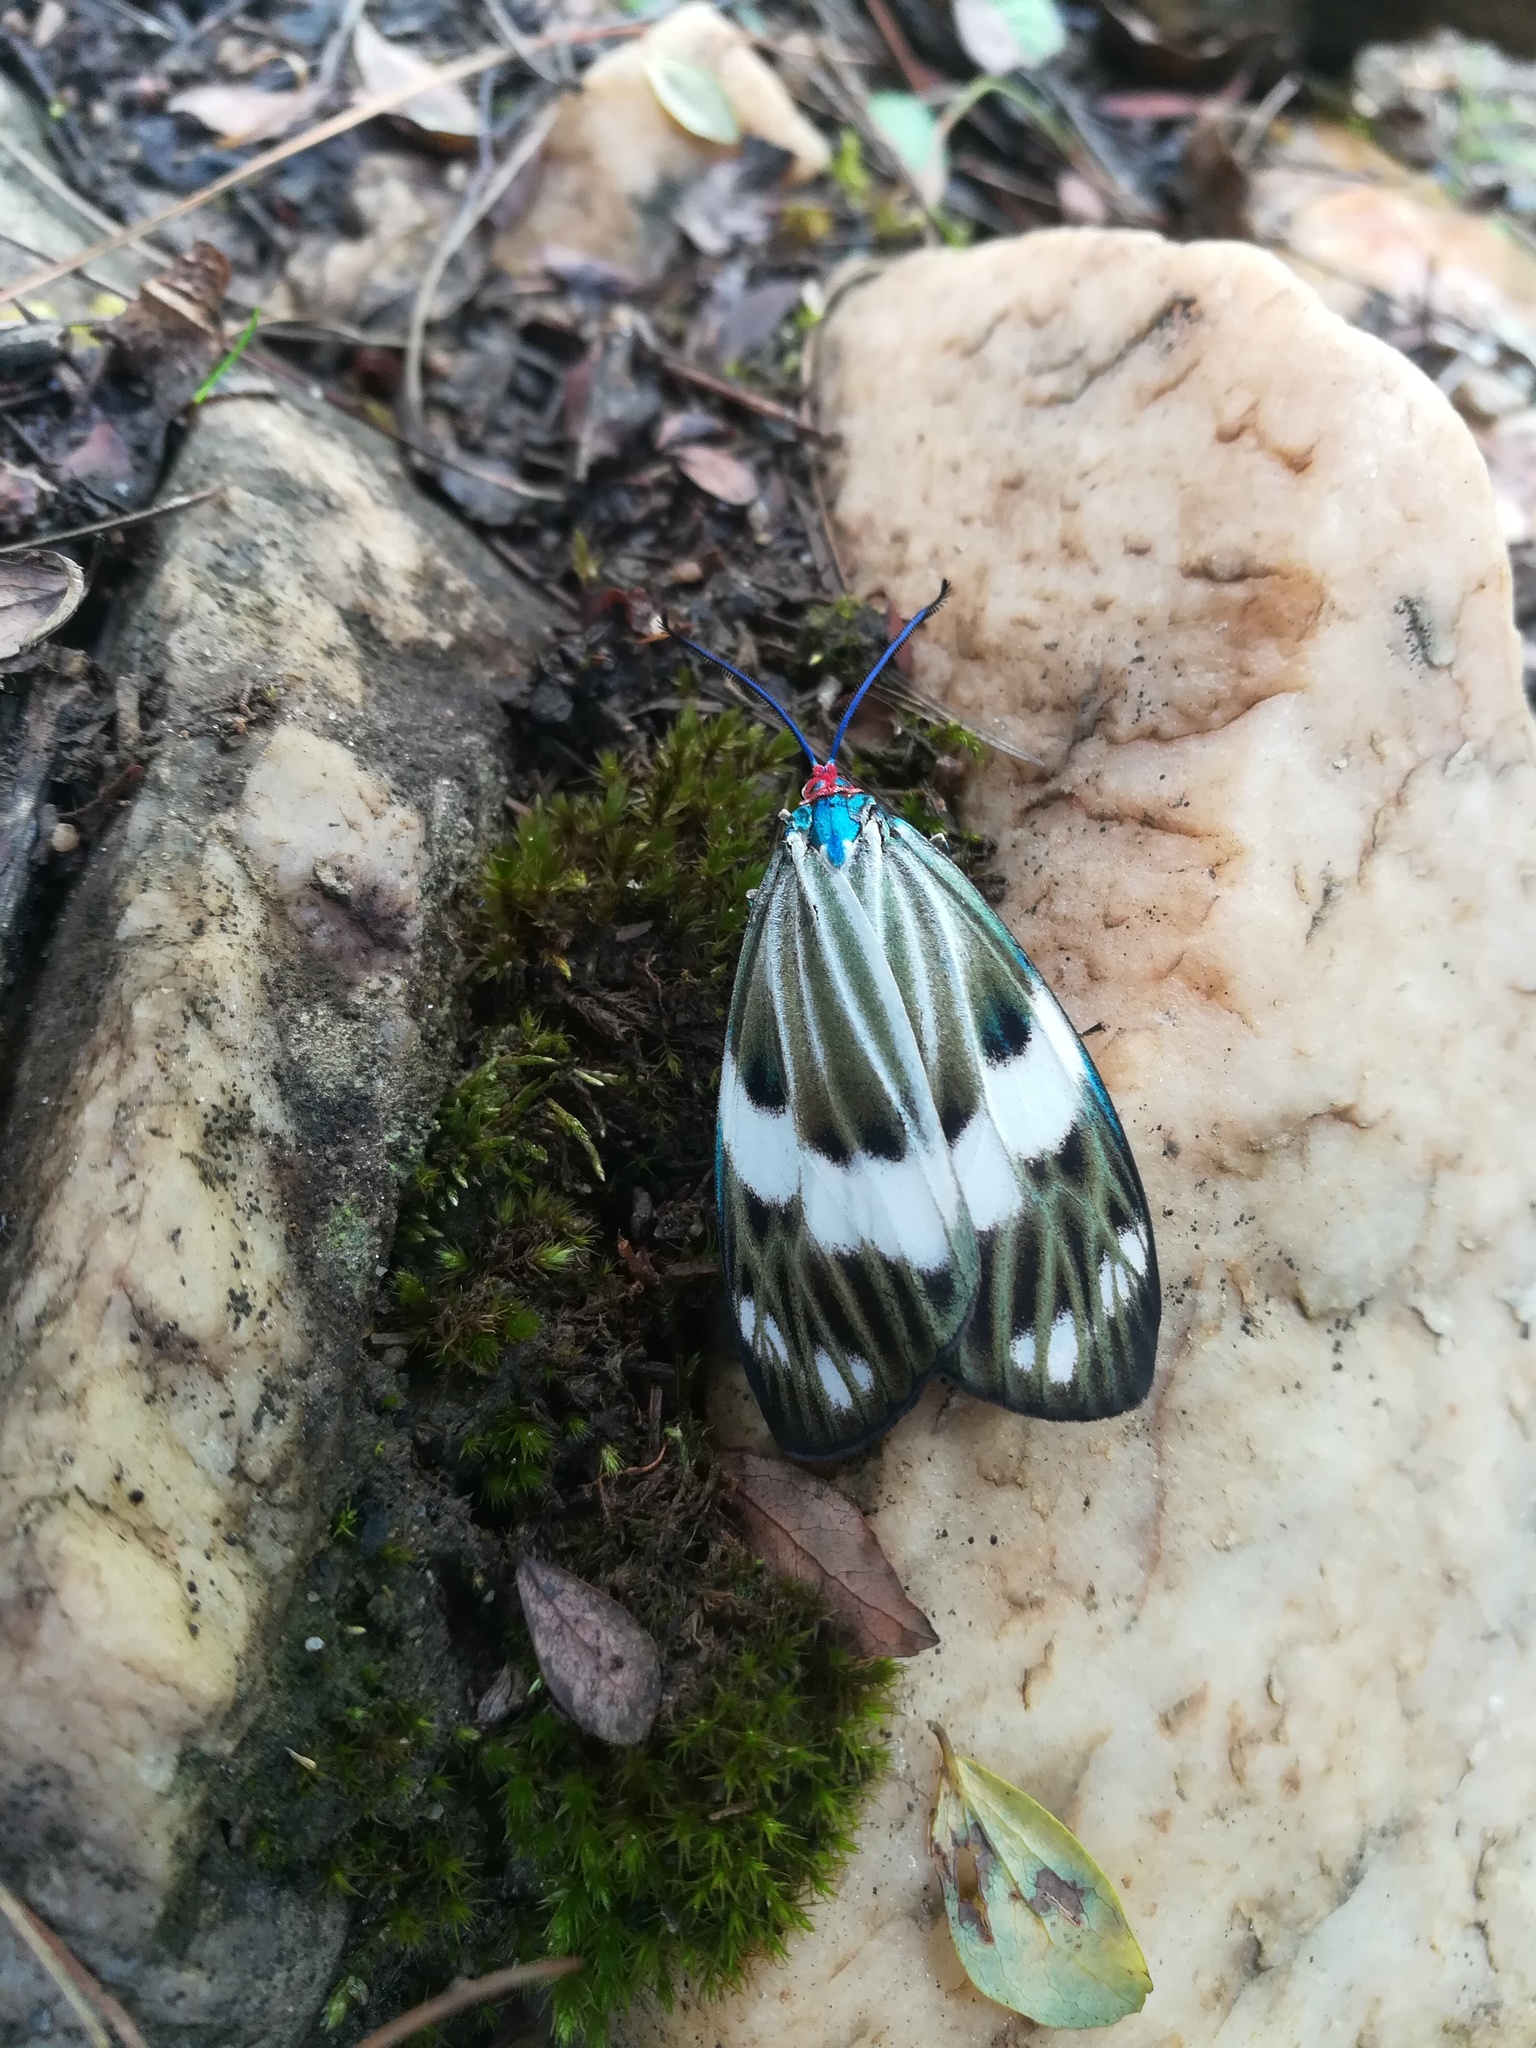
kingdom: Animalia
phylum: Arthropoda
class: Insecta
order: Lepidoptera
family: Zygaenidae
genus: Chalcosia
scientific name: Chalcosia pectinicornis
